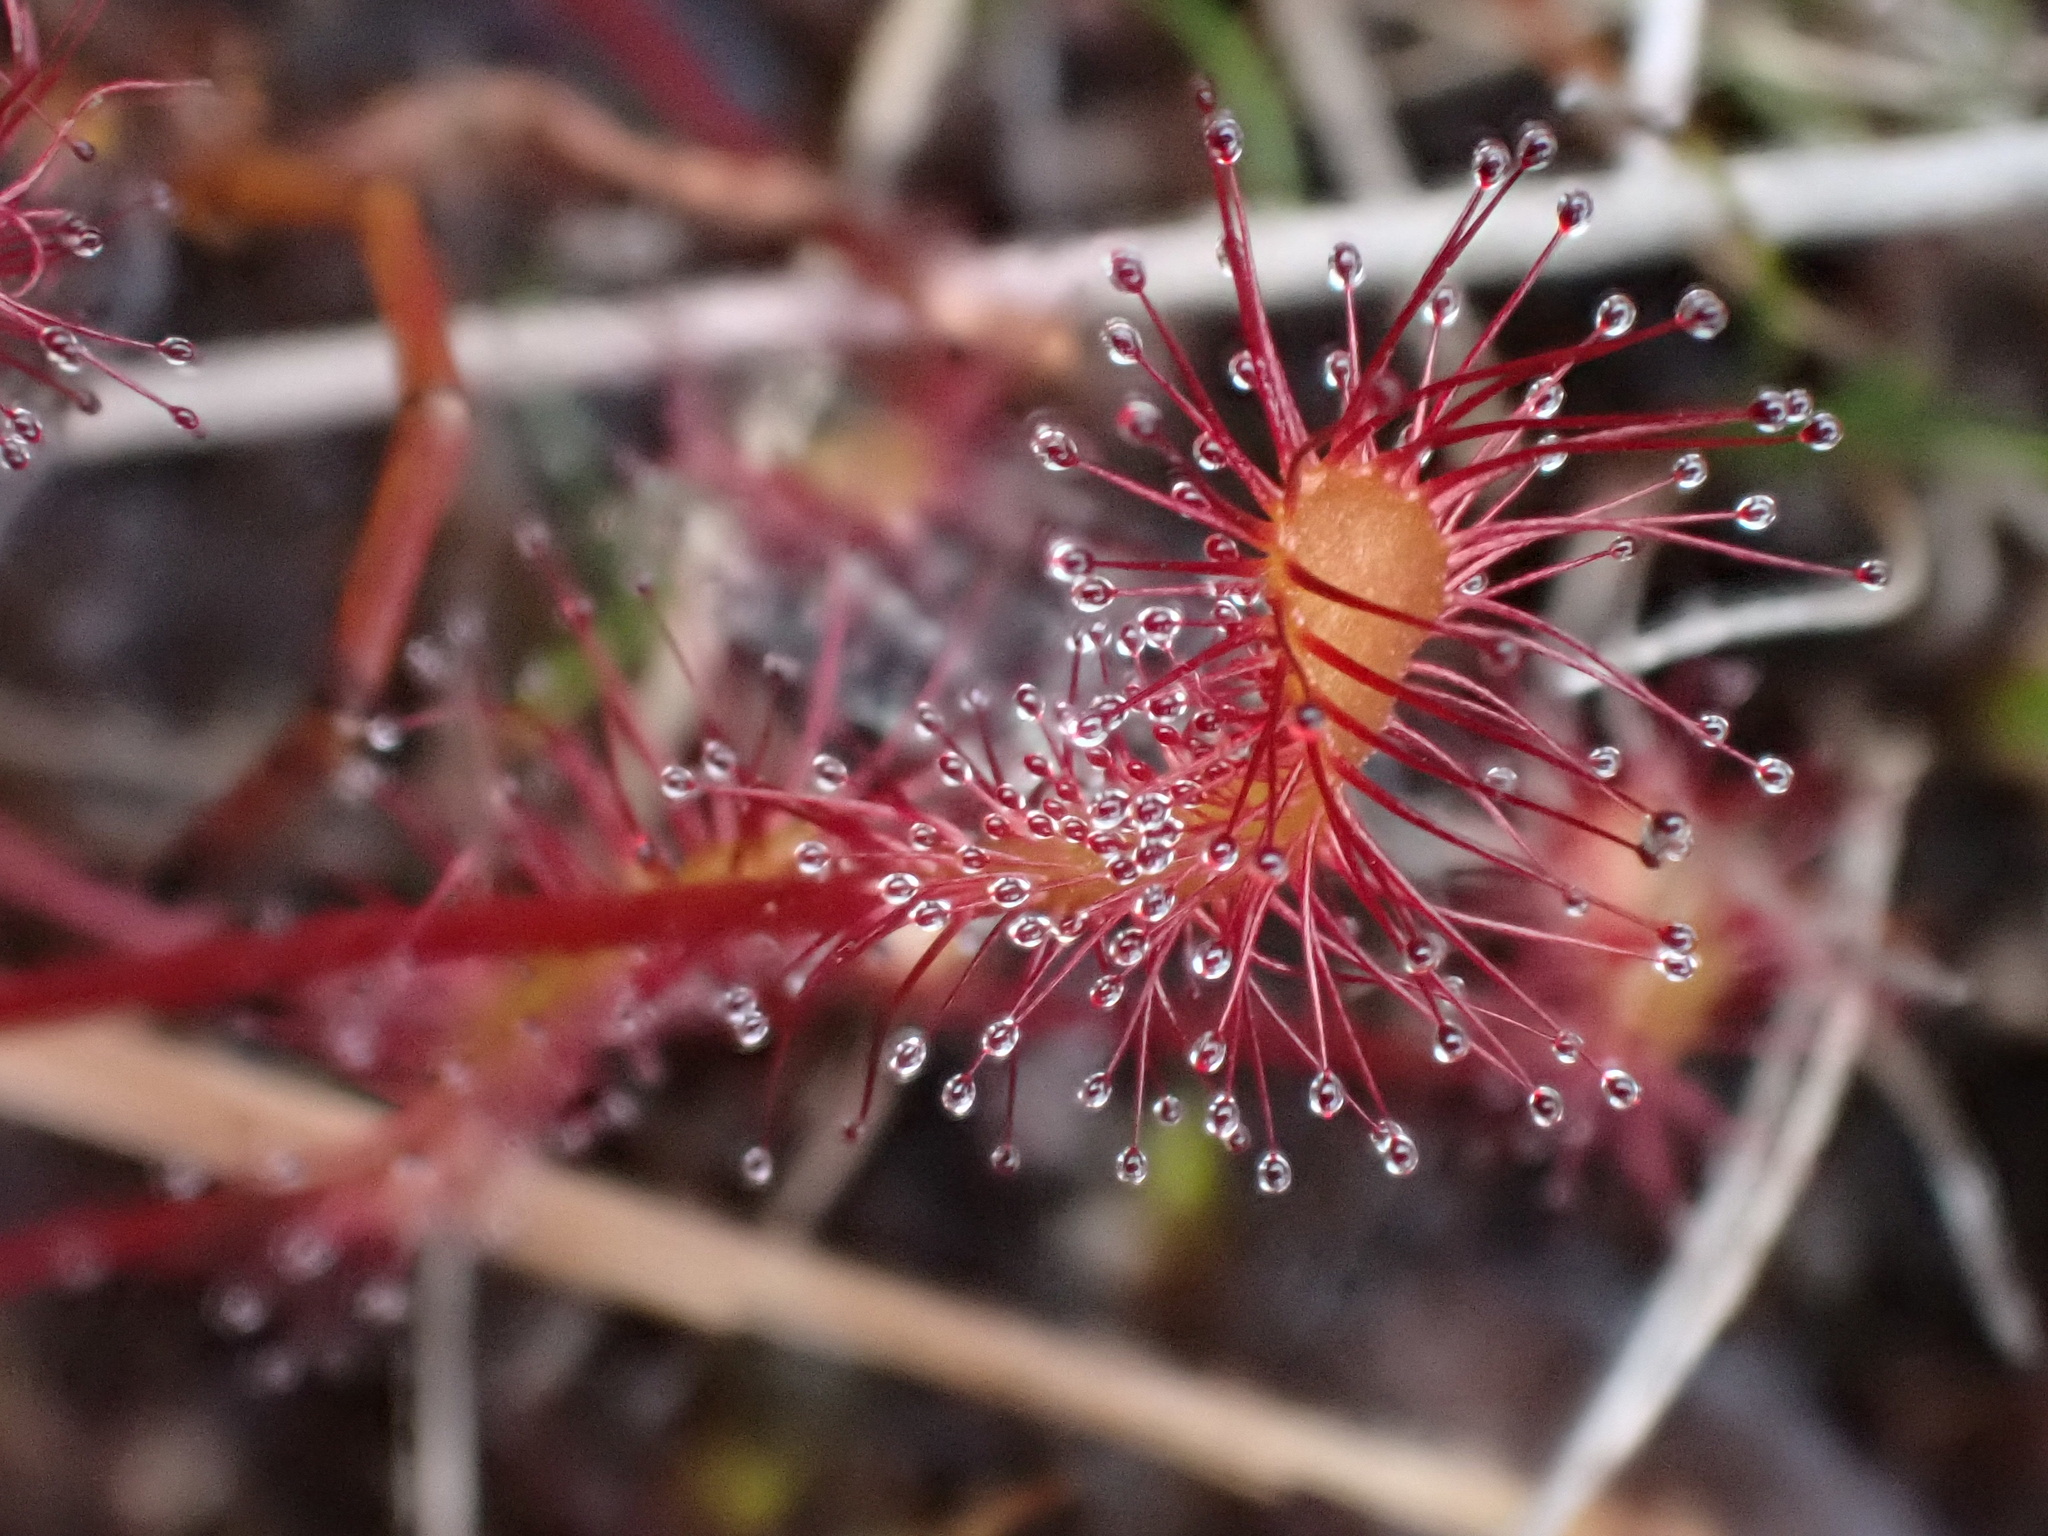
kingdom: Plantae
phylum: Tracheophyta
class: Magnoliopsida
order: Caryophyllales
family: Droseraceae
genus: Drosera
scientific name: Drosera anglica
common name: Great sundew
